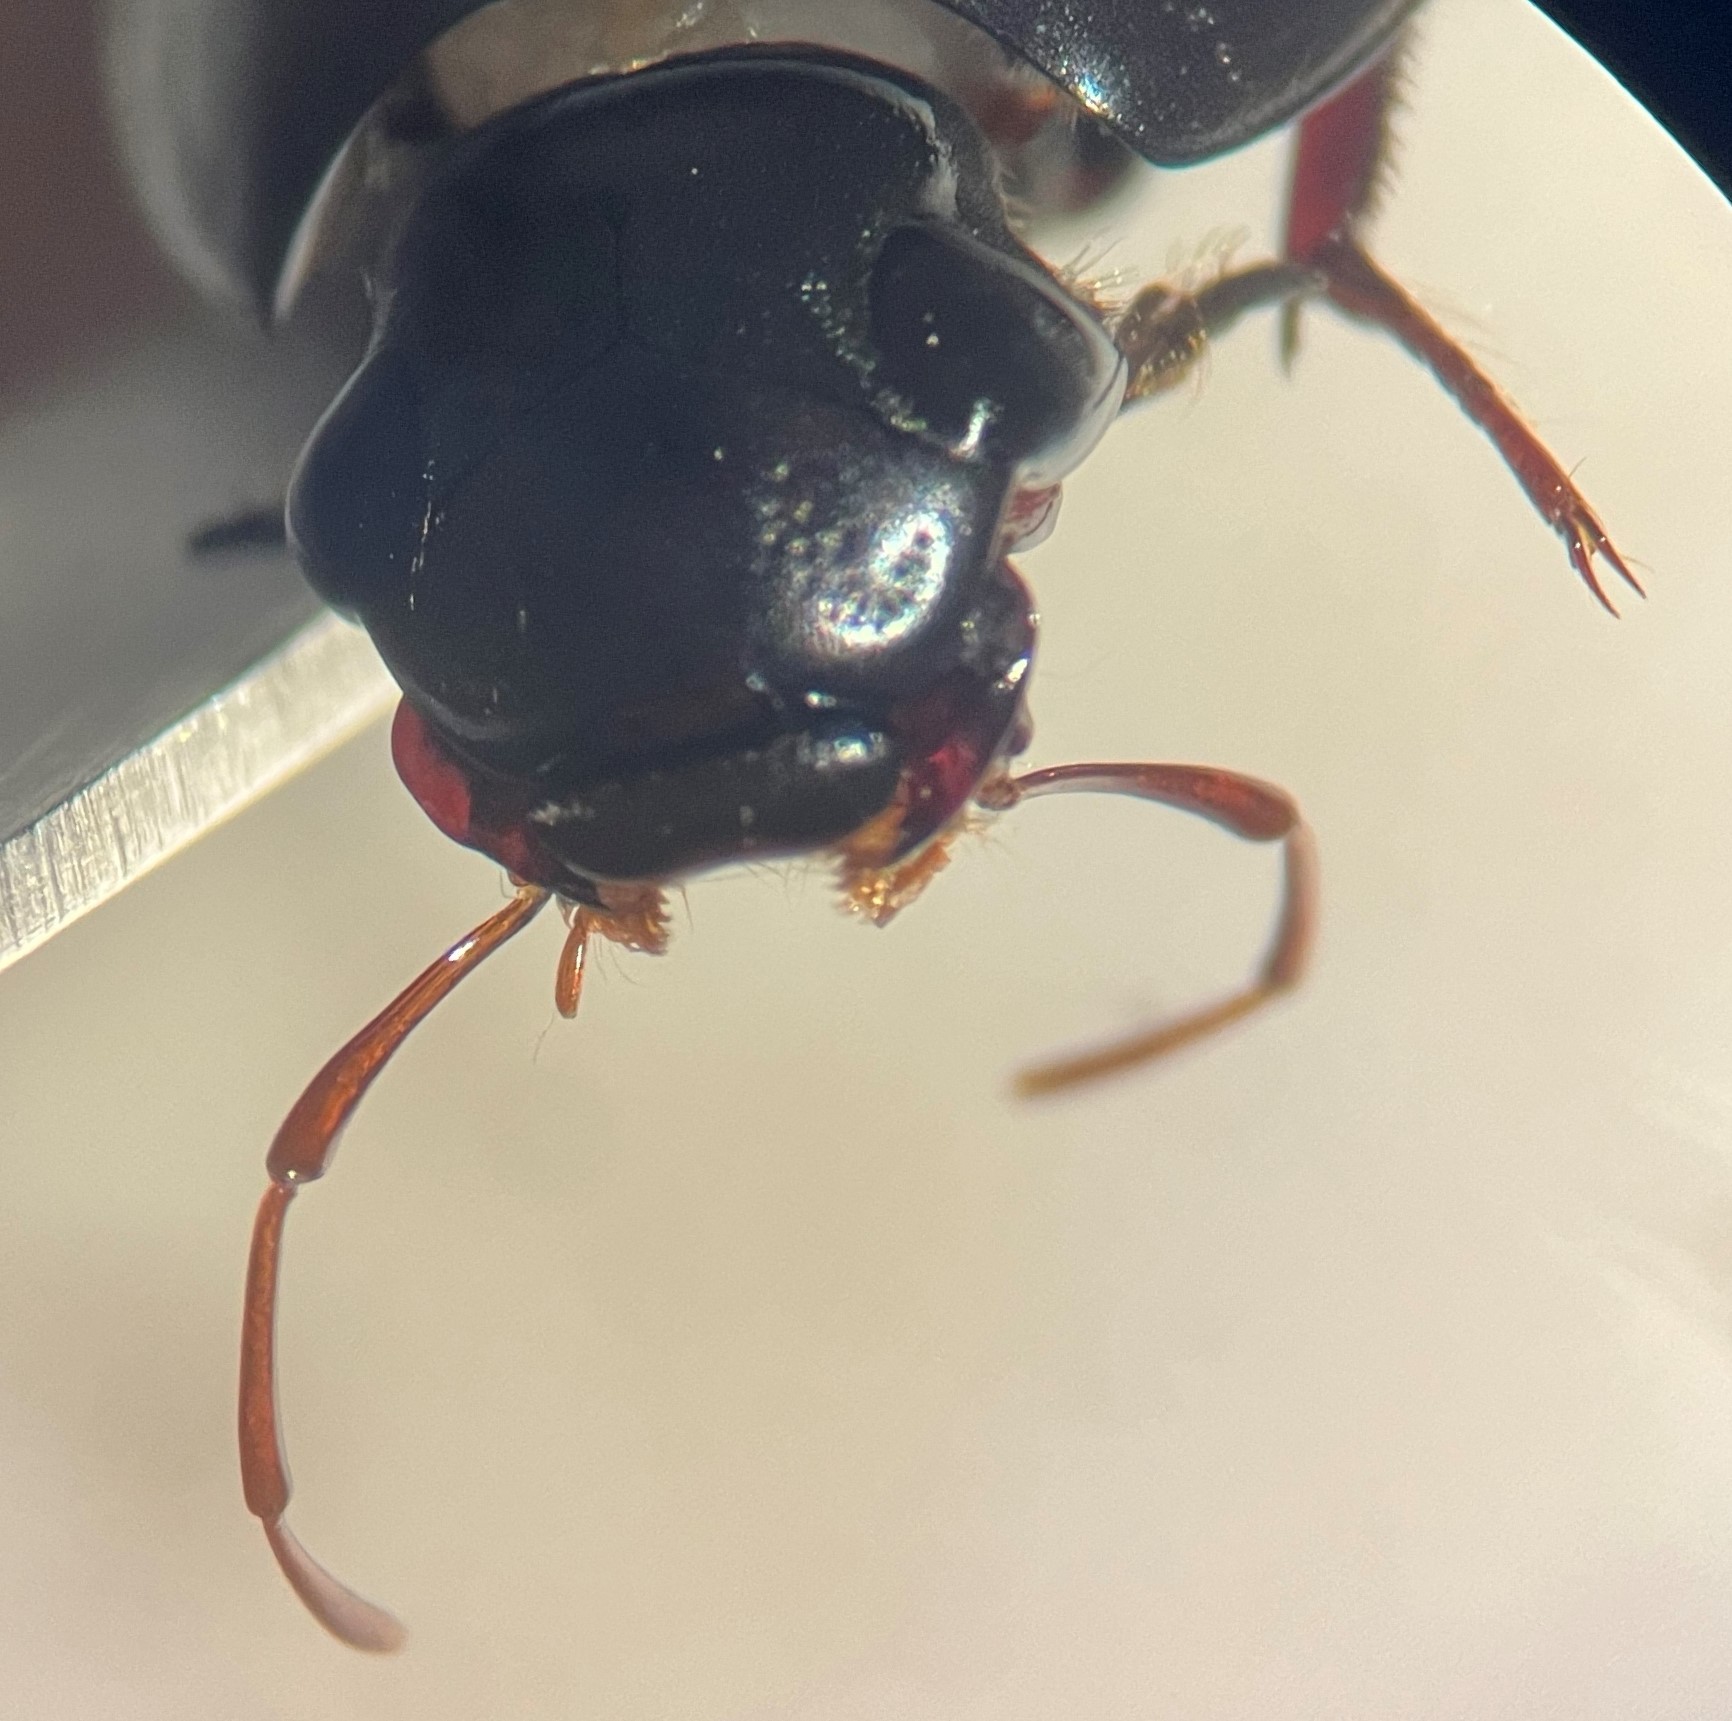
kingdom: Animalia
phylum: Arthropoda
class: Insecta
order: Coleoptera
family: Hydrophilidae
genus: Hydrobiomorpha
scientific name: Hydrobiomorpha casta
